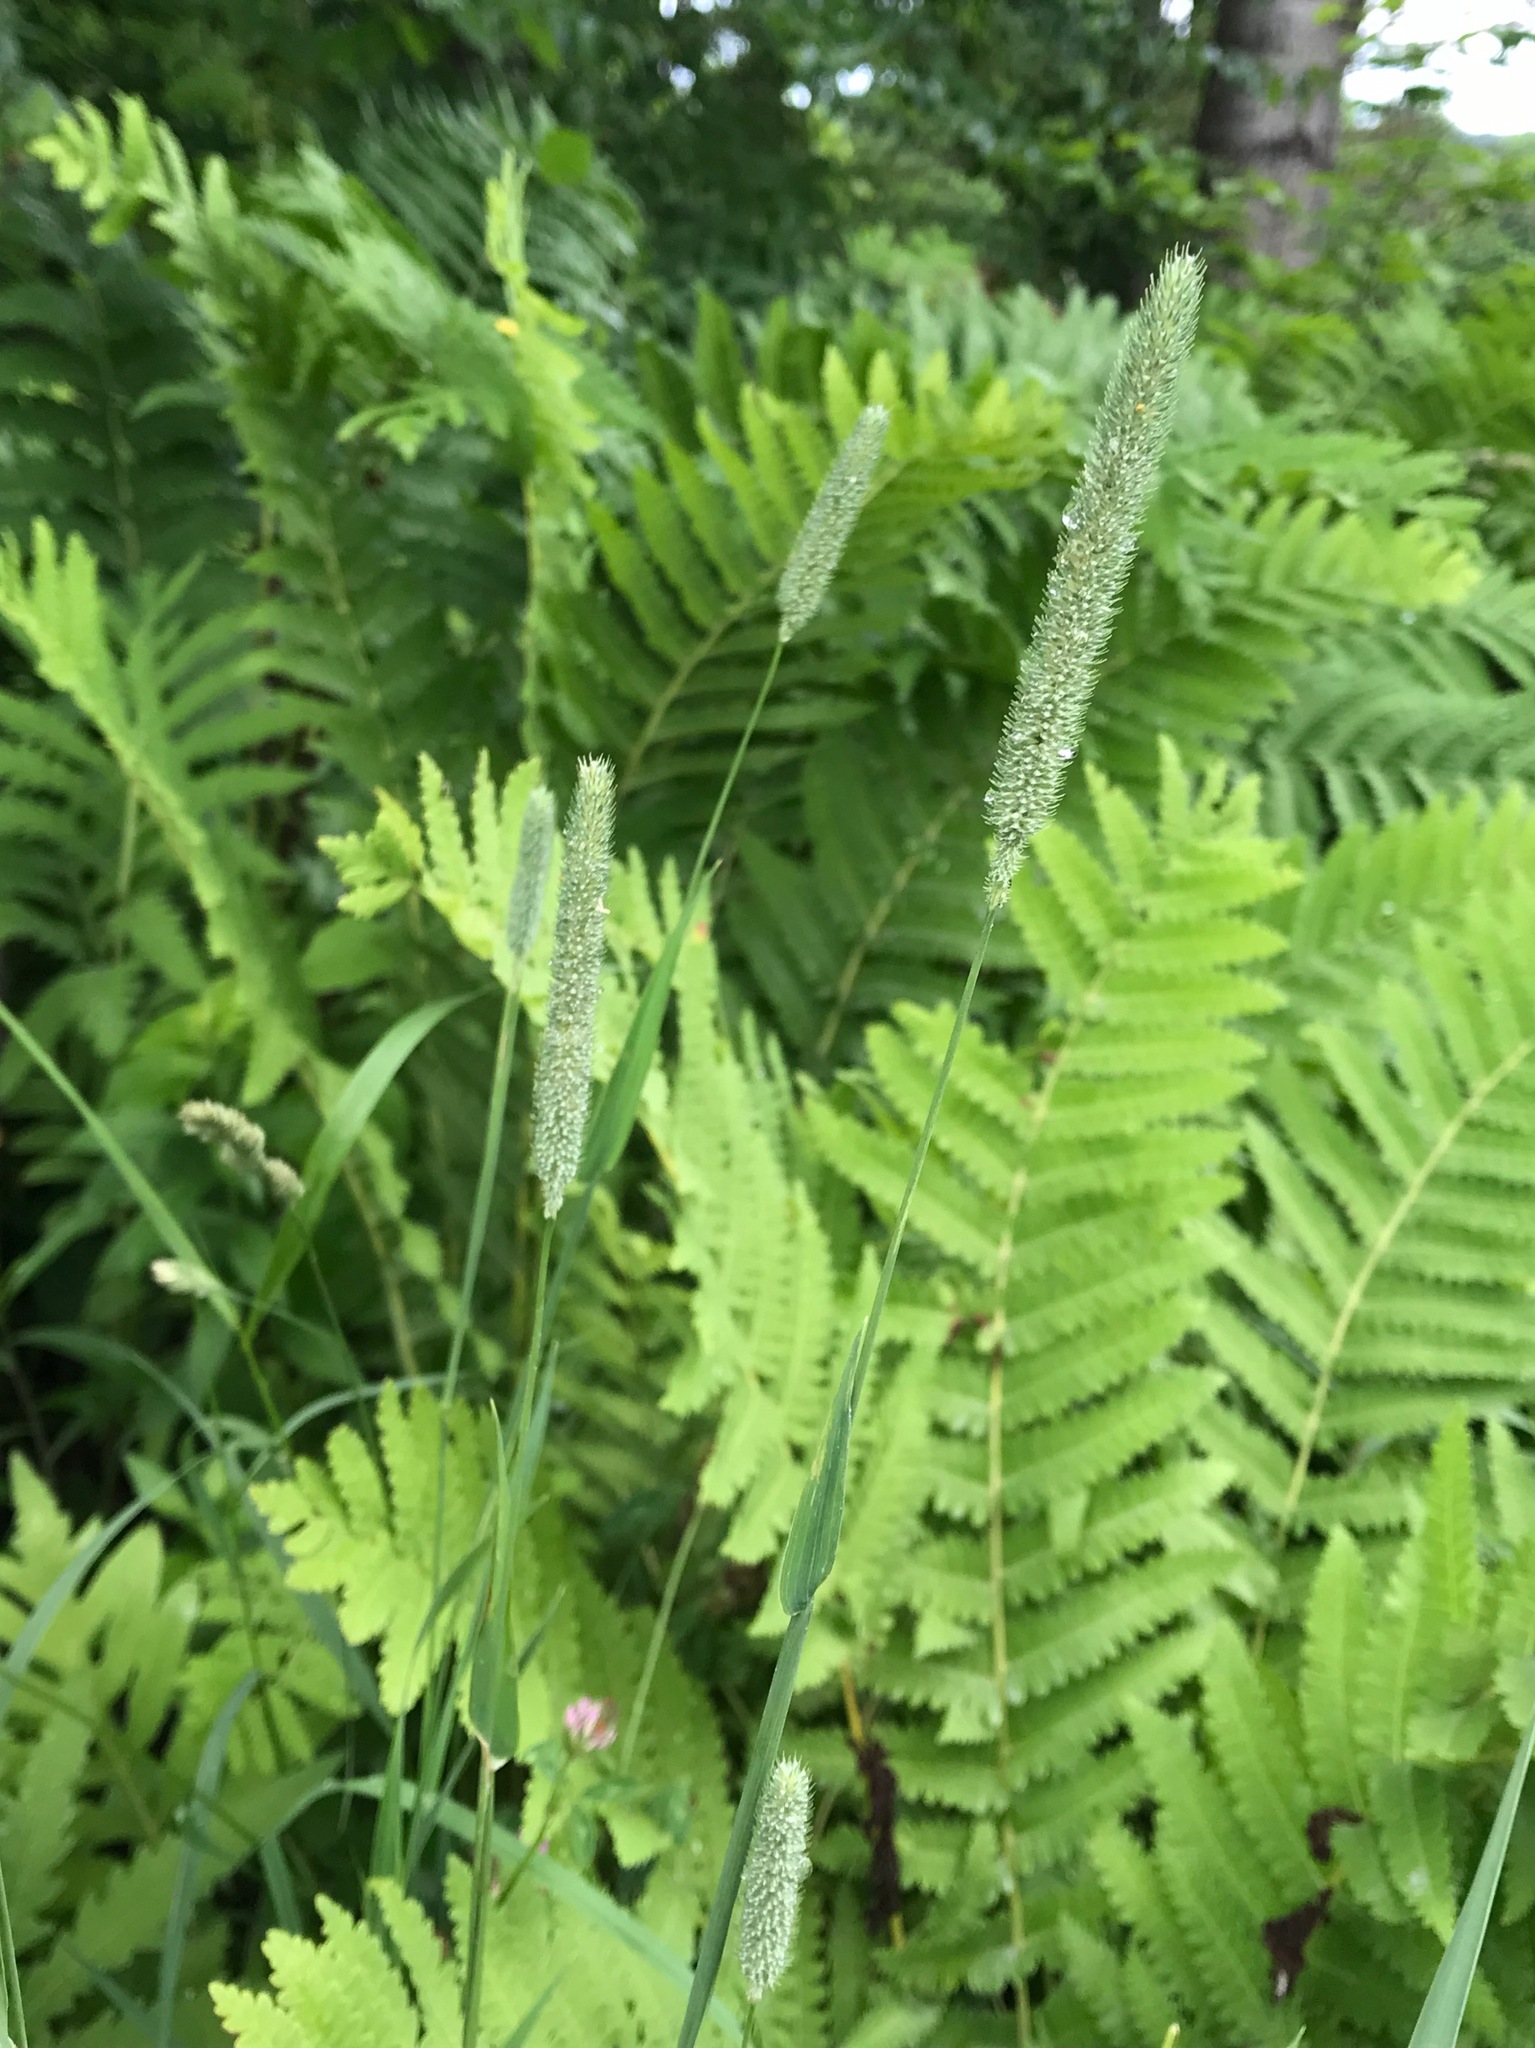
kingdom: Plantae
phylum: Tracheophyta
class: Liliopsida
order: Poales
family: Poaceae
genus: Phleum
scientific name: Phleum pratense
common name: Timothy grass
